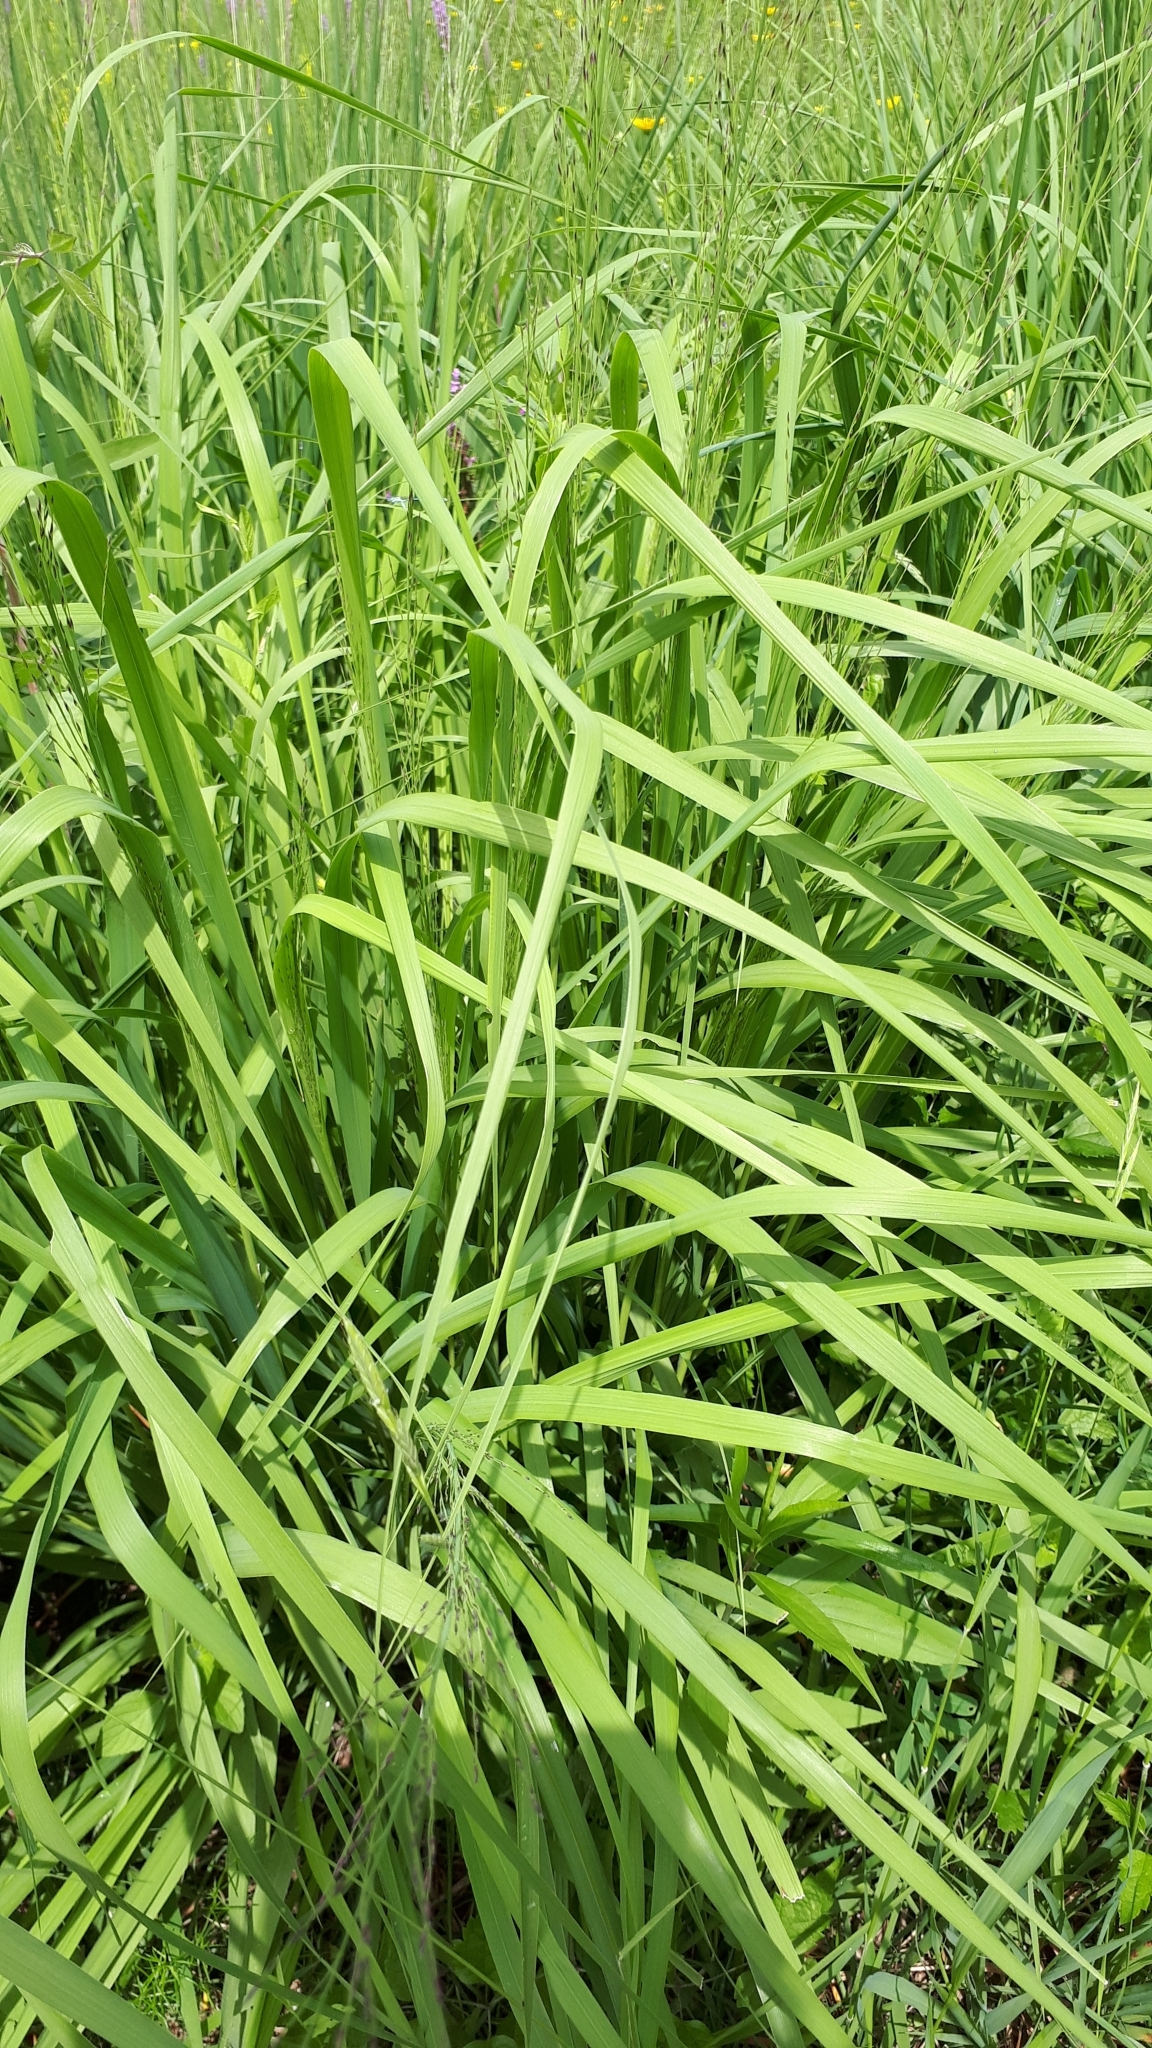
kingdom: Plantae
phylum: Tracheophyta
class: Liliopsida
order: Poales
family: Poaceae
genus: Molinia
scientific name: Molinia caerulea
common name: Purple moor-grass
